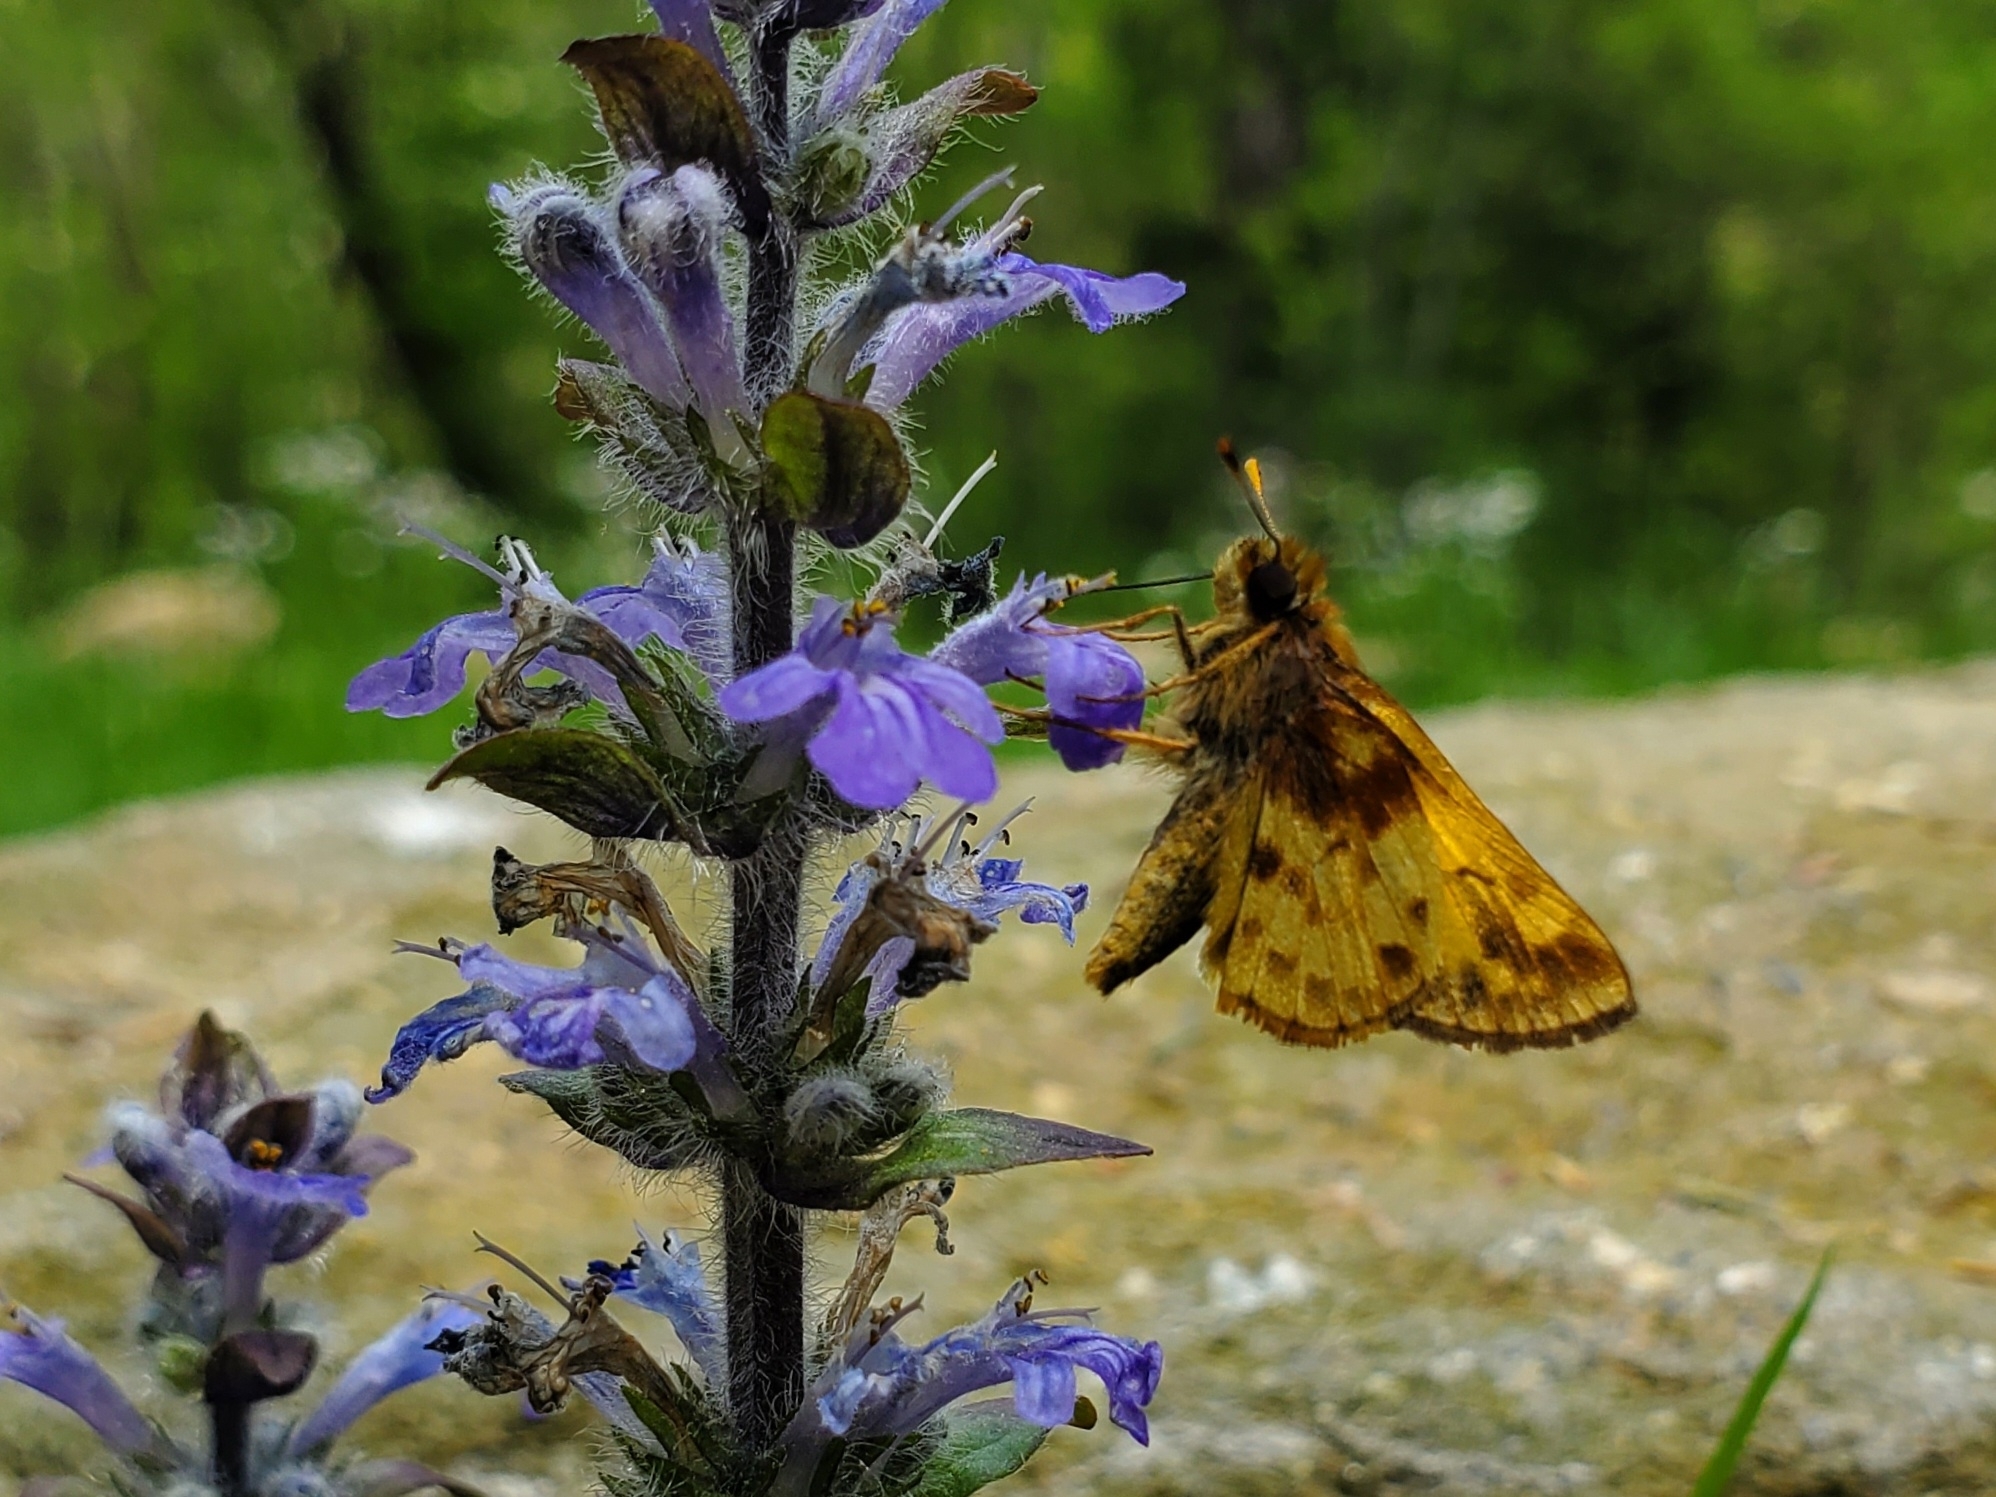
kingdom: Animalia
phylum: Arthropoda
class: Insecta
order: Lepidoptera
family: Hesperiidae
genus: Lon
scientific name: Lon zabulon
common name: Zabulon skipper
